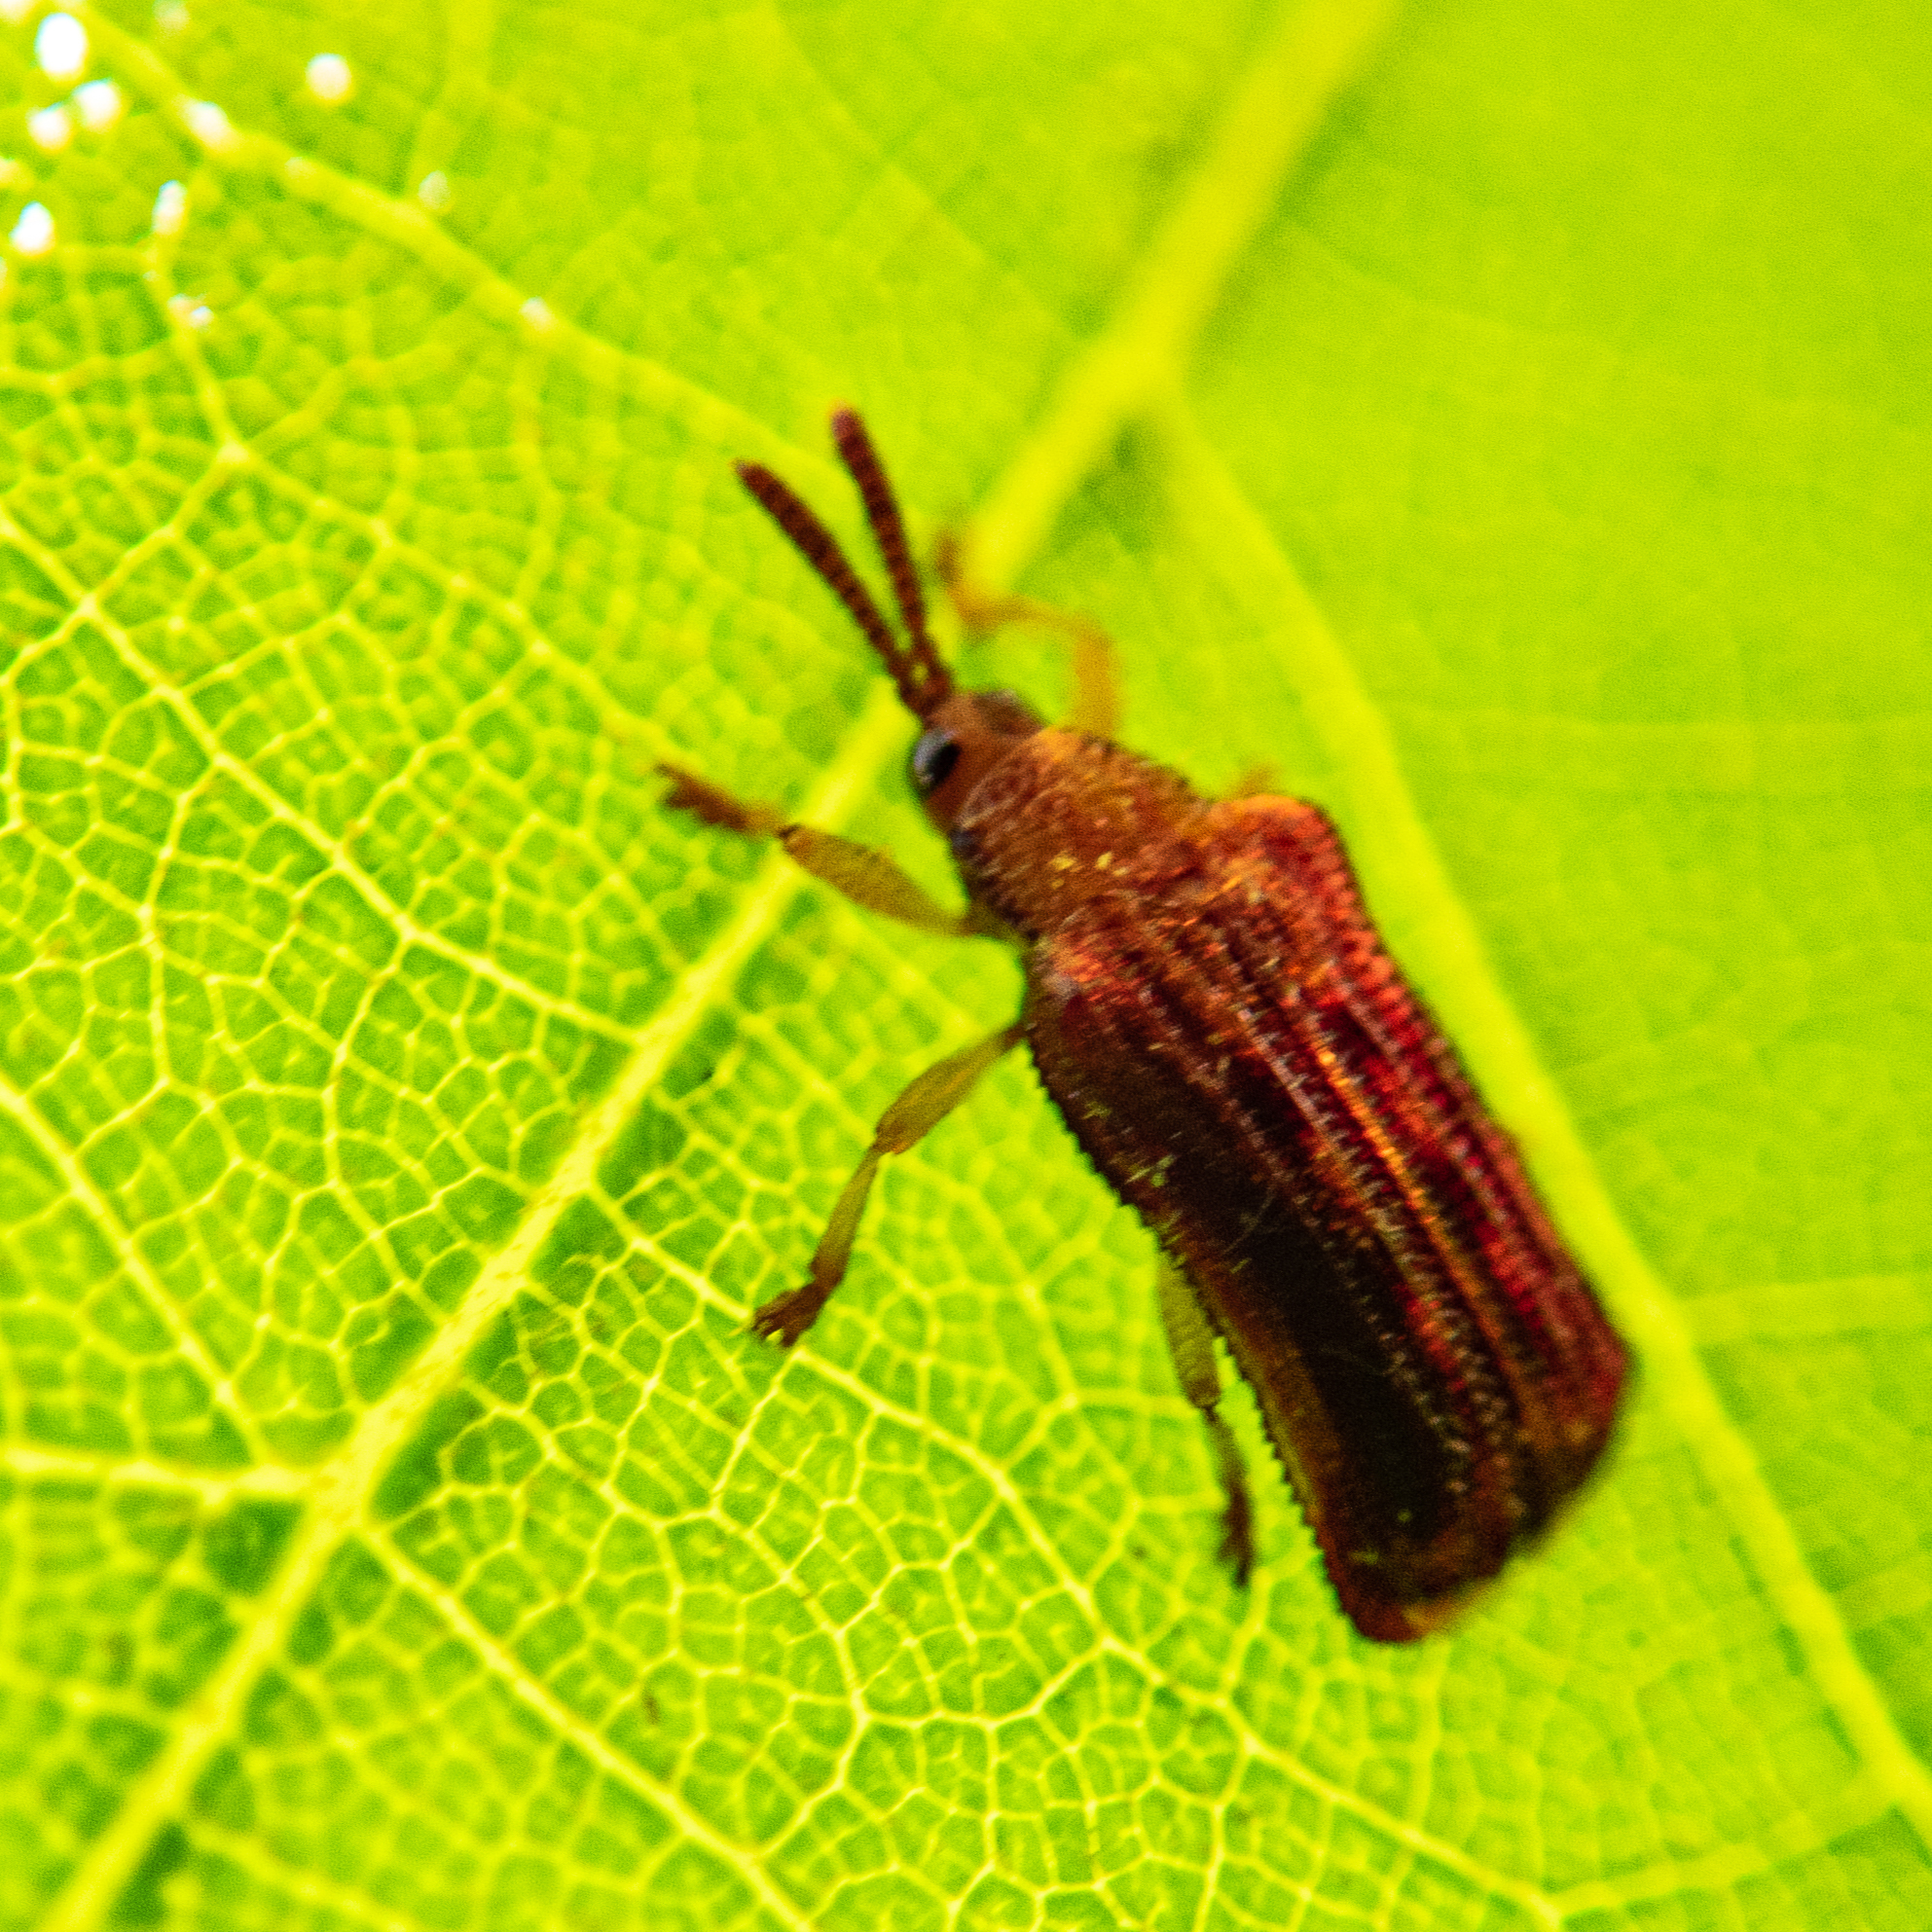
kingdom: Animalia
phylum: Arthropoda
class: Insecta
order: Coleoptera
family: Chrysomelidae
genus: Baliosus
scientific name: Baliosus nervosus
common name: Basswood leaf miner
